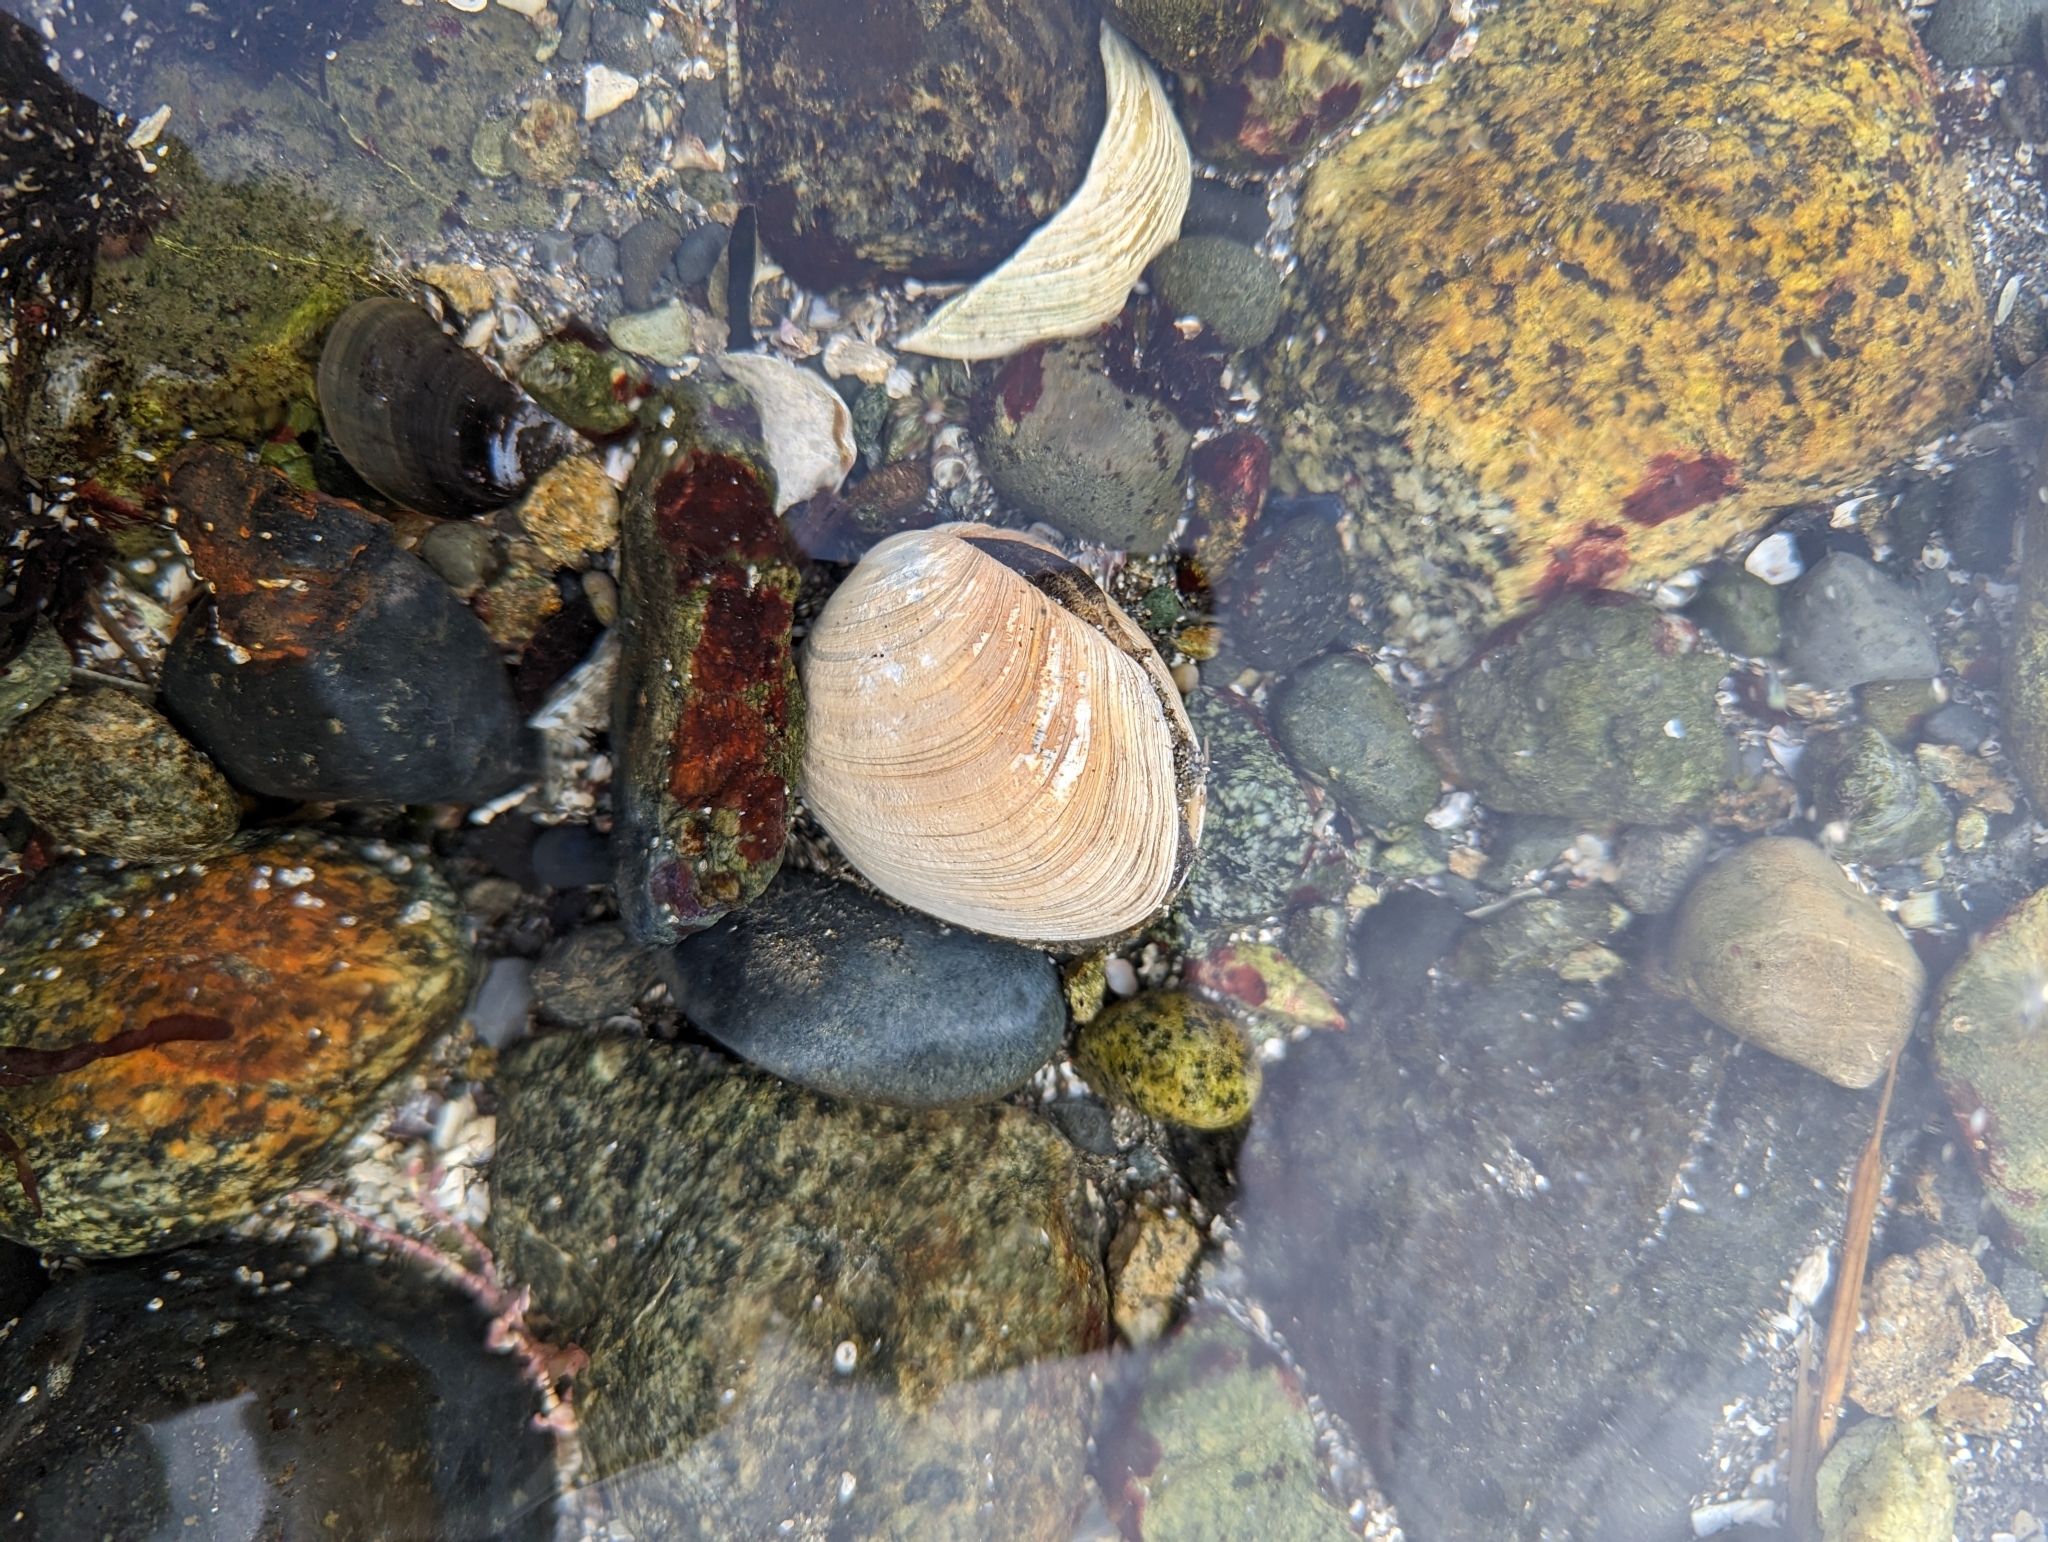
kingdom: Animalia
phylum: Mollusca
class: Bivalvia
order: Venerida
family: Veneridae
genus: Saxidomus
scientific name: Saxidomus gigantea
